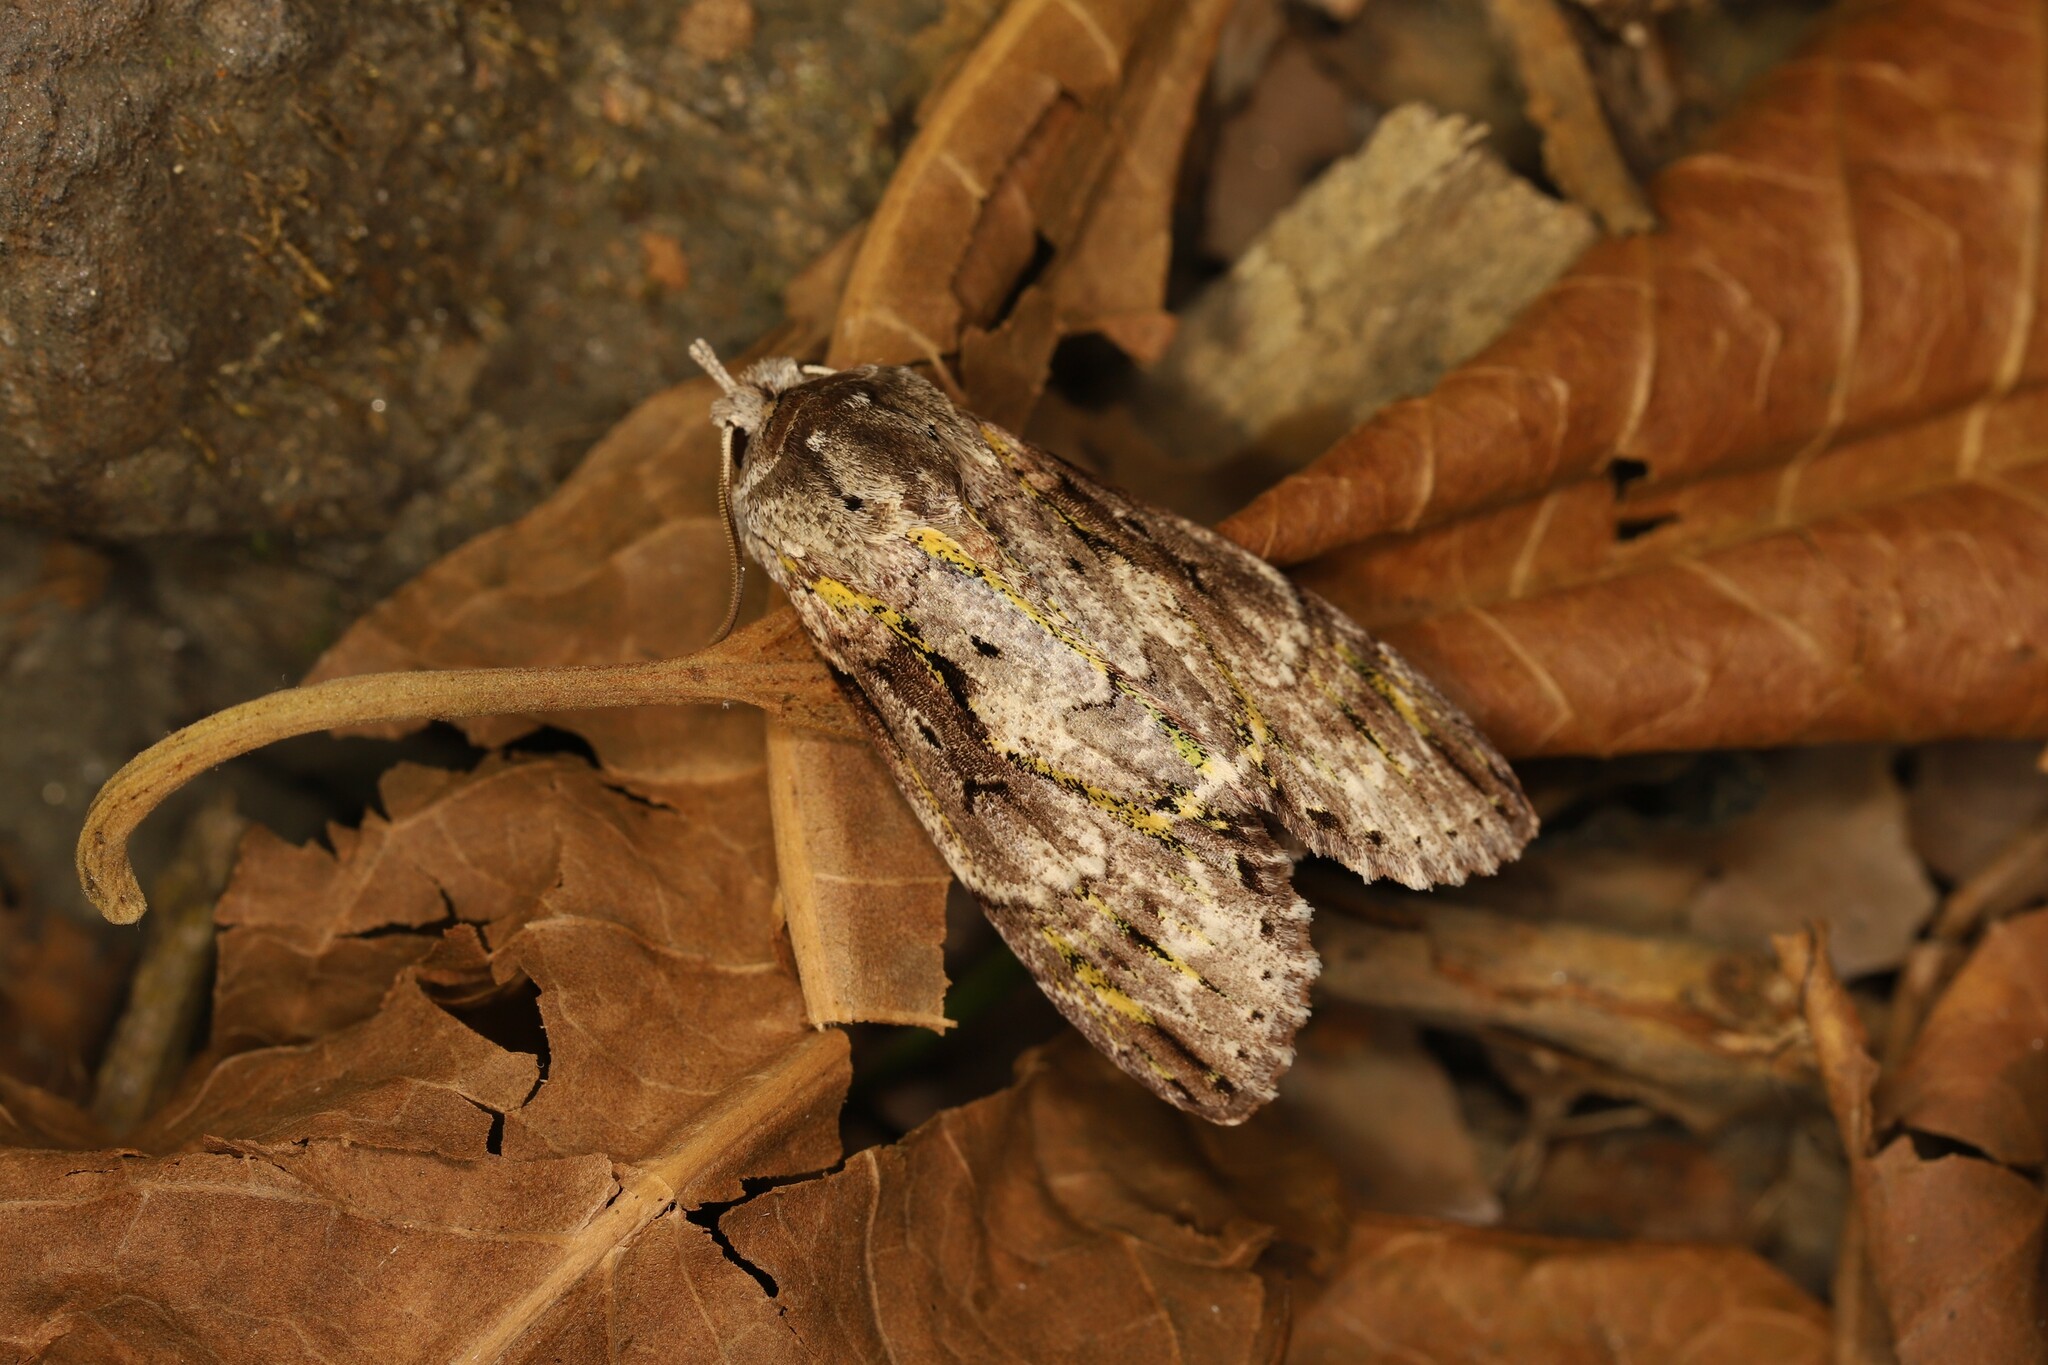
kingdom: Animalia
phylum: Arthropoda
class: Insecta
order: Lepidoptera
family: Nolidae
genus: Iscadia
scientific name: Iscadia chlorographa
